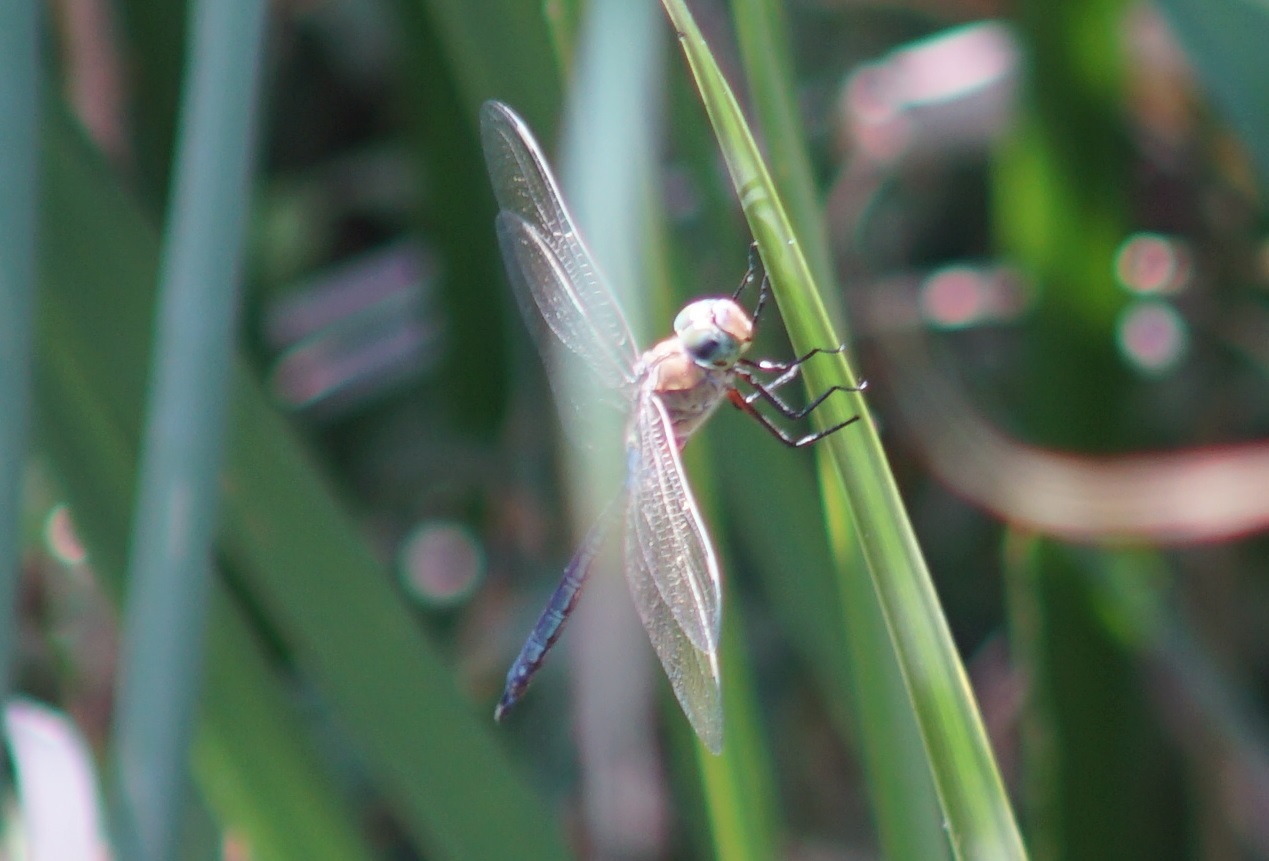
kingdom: Animalia
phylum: Arthropoda
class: Insecta
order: Odonata
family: Aeshnidae
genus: Anax
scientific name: Anax parthenope
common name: Lesser emperor
